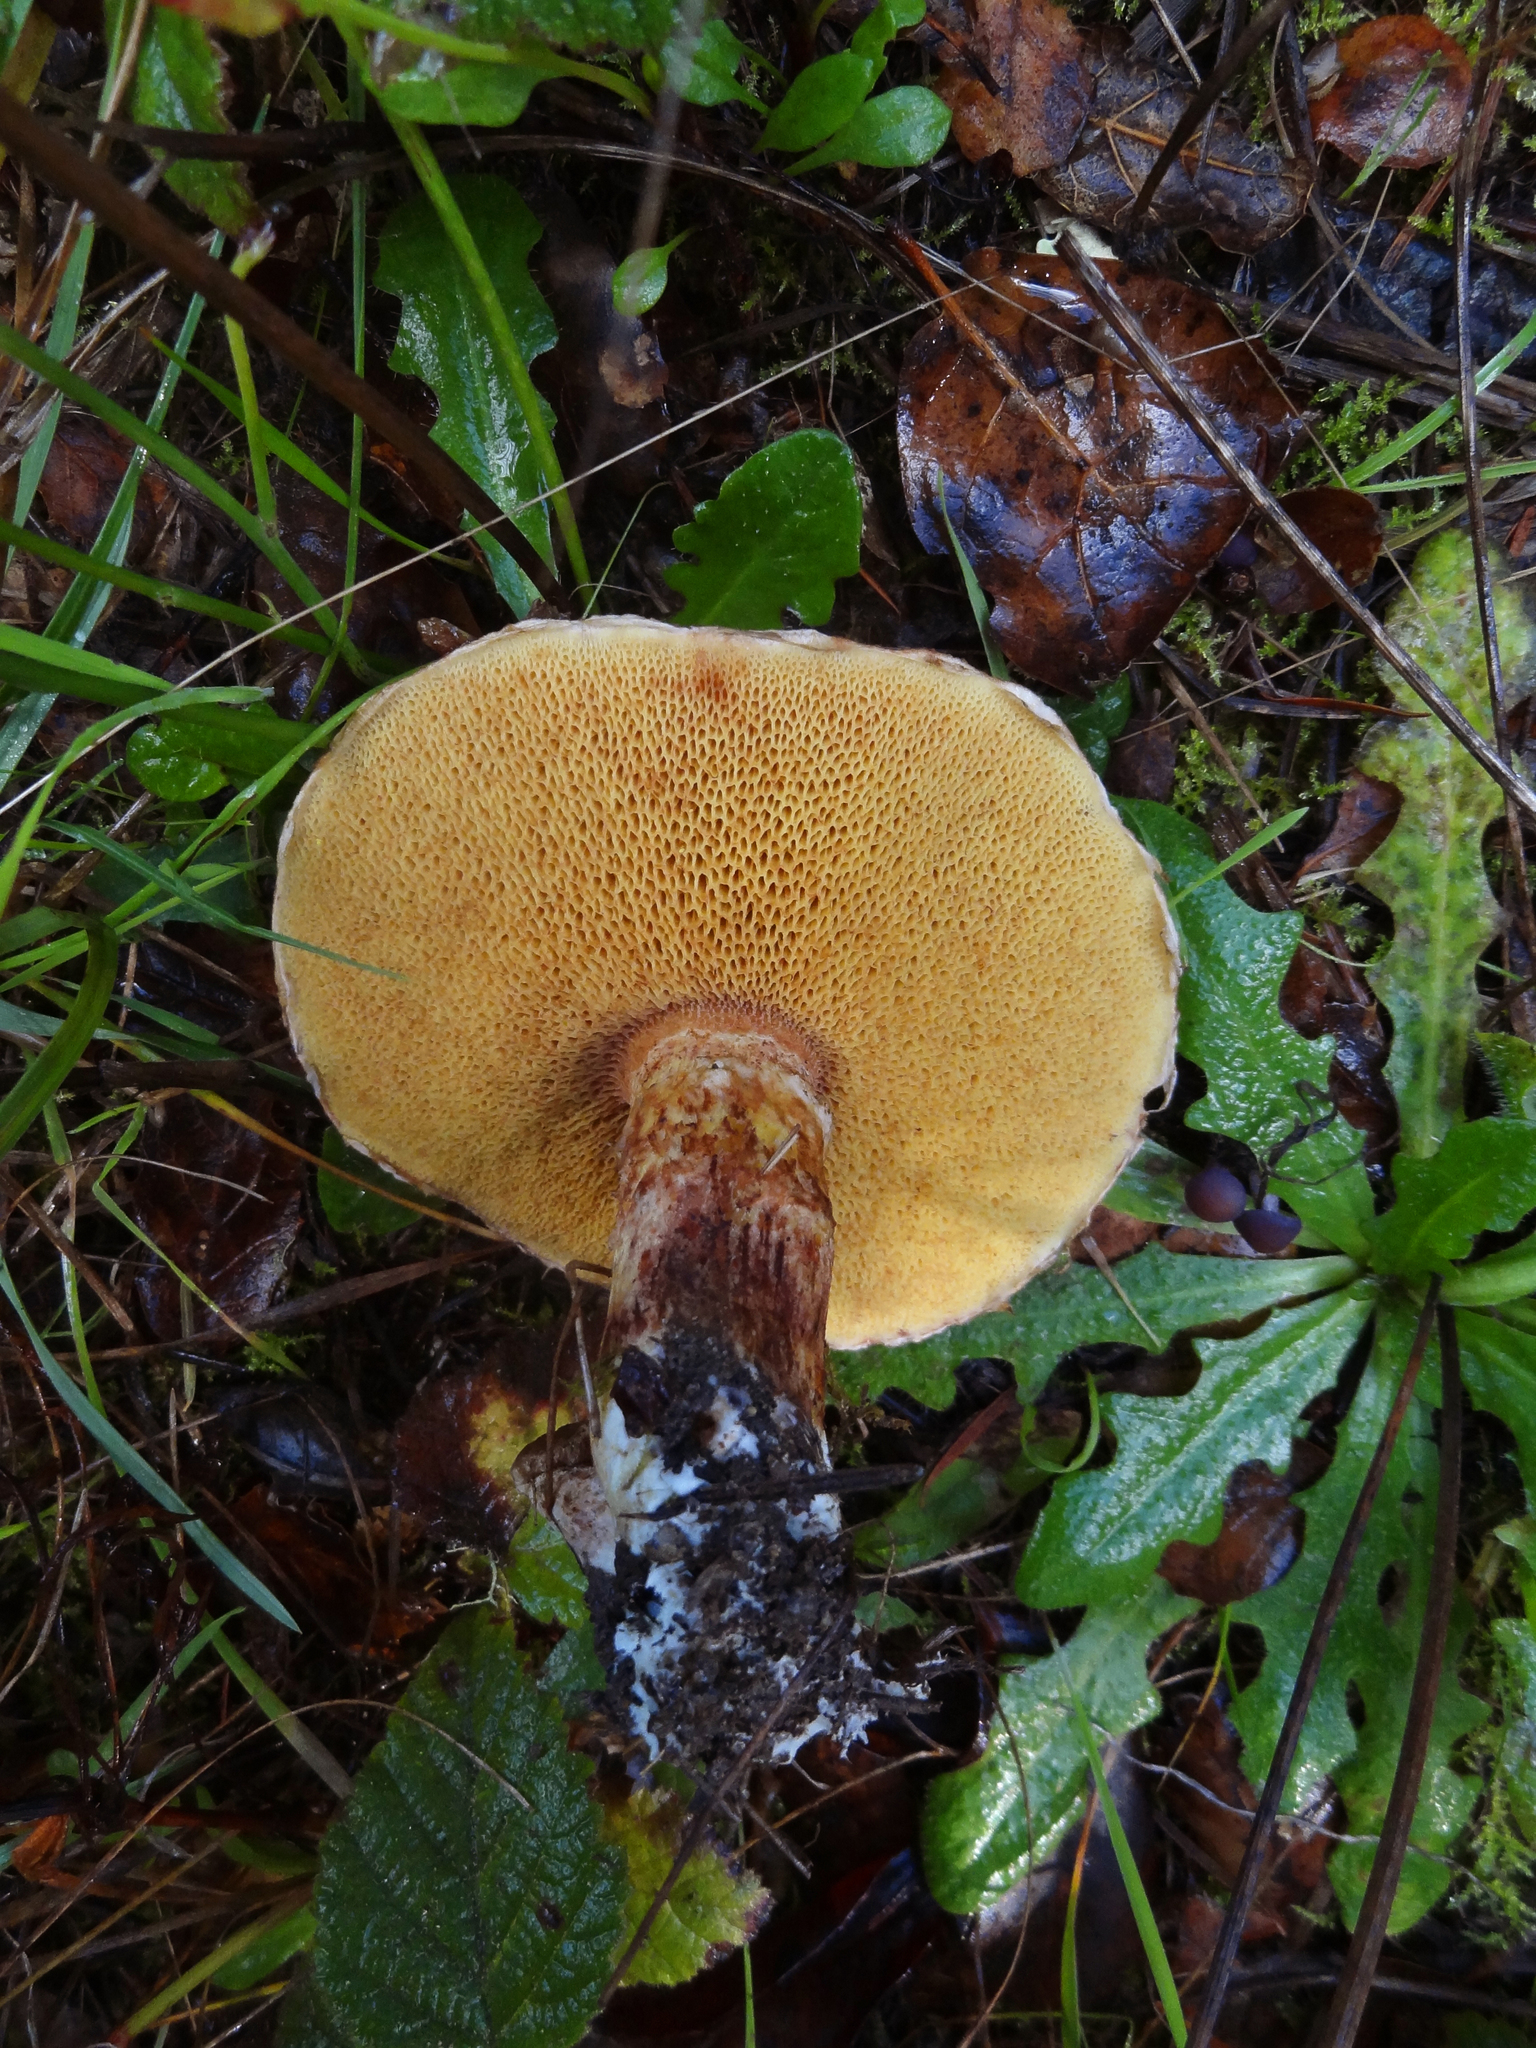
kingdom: Fungi
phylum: Basidiomycota
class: Agaricomycetes
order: Boletales
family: Suillaceae
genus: Suillus
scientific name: Suillus lakei
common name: Western painted suillus
